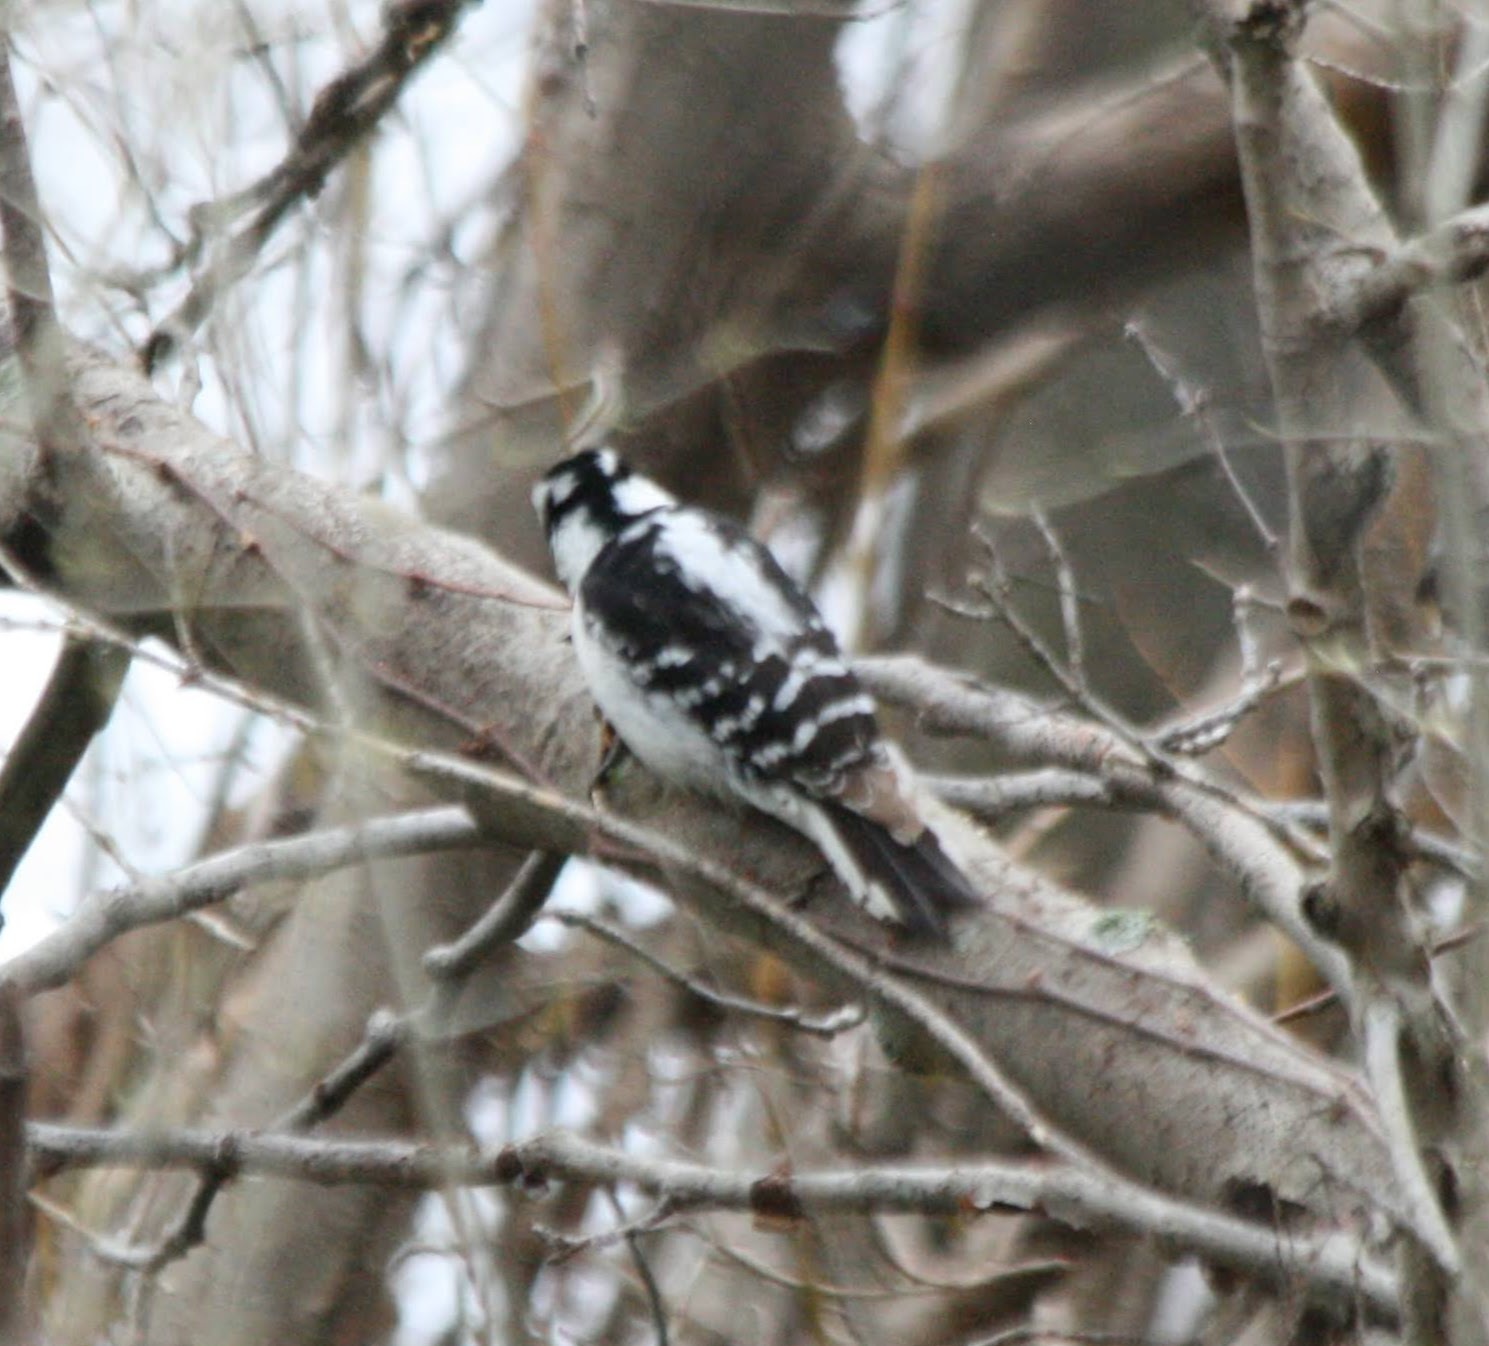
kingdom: Animalia
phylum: Chordata
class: Aves
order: Piciformes
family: Picidae
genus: Dryobates
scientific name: Dryobates pubescens
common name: Downy woodpecker
